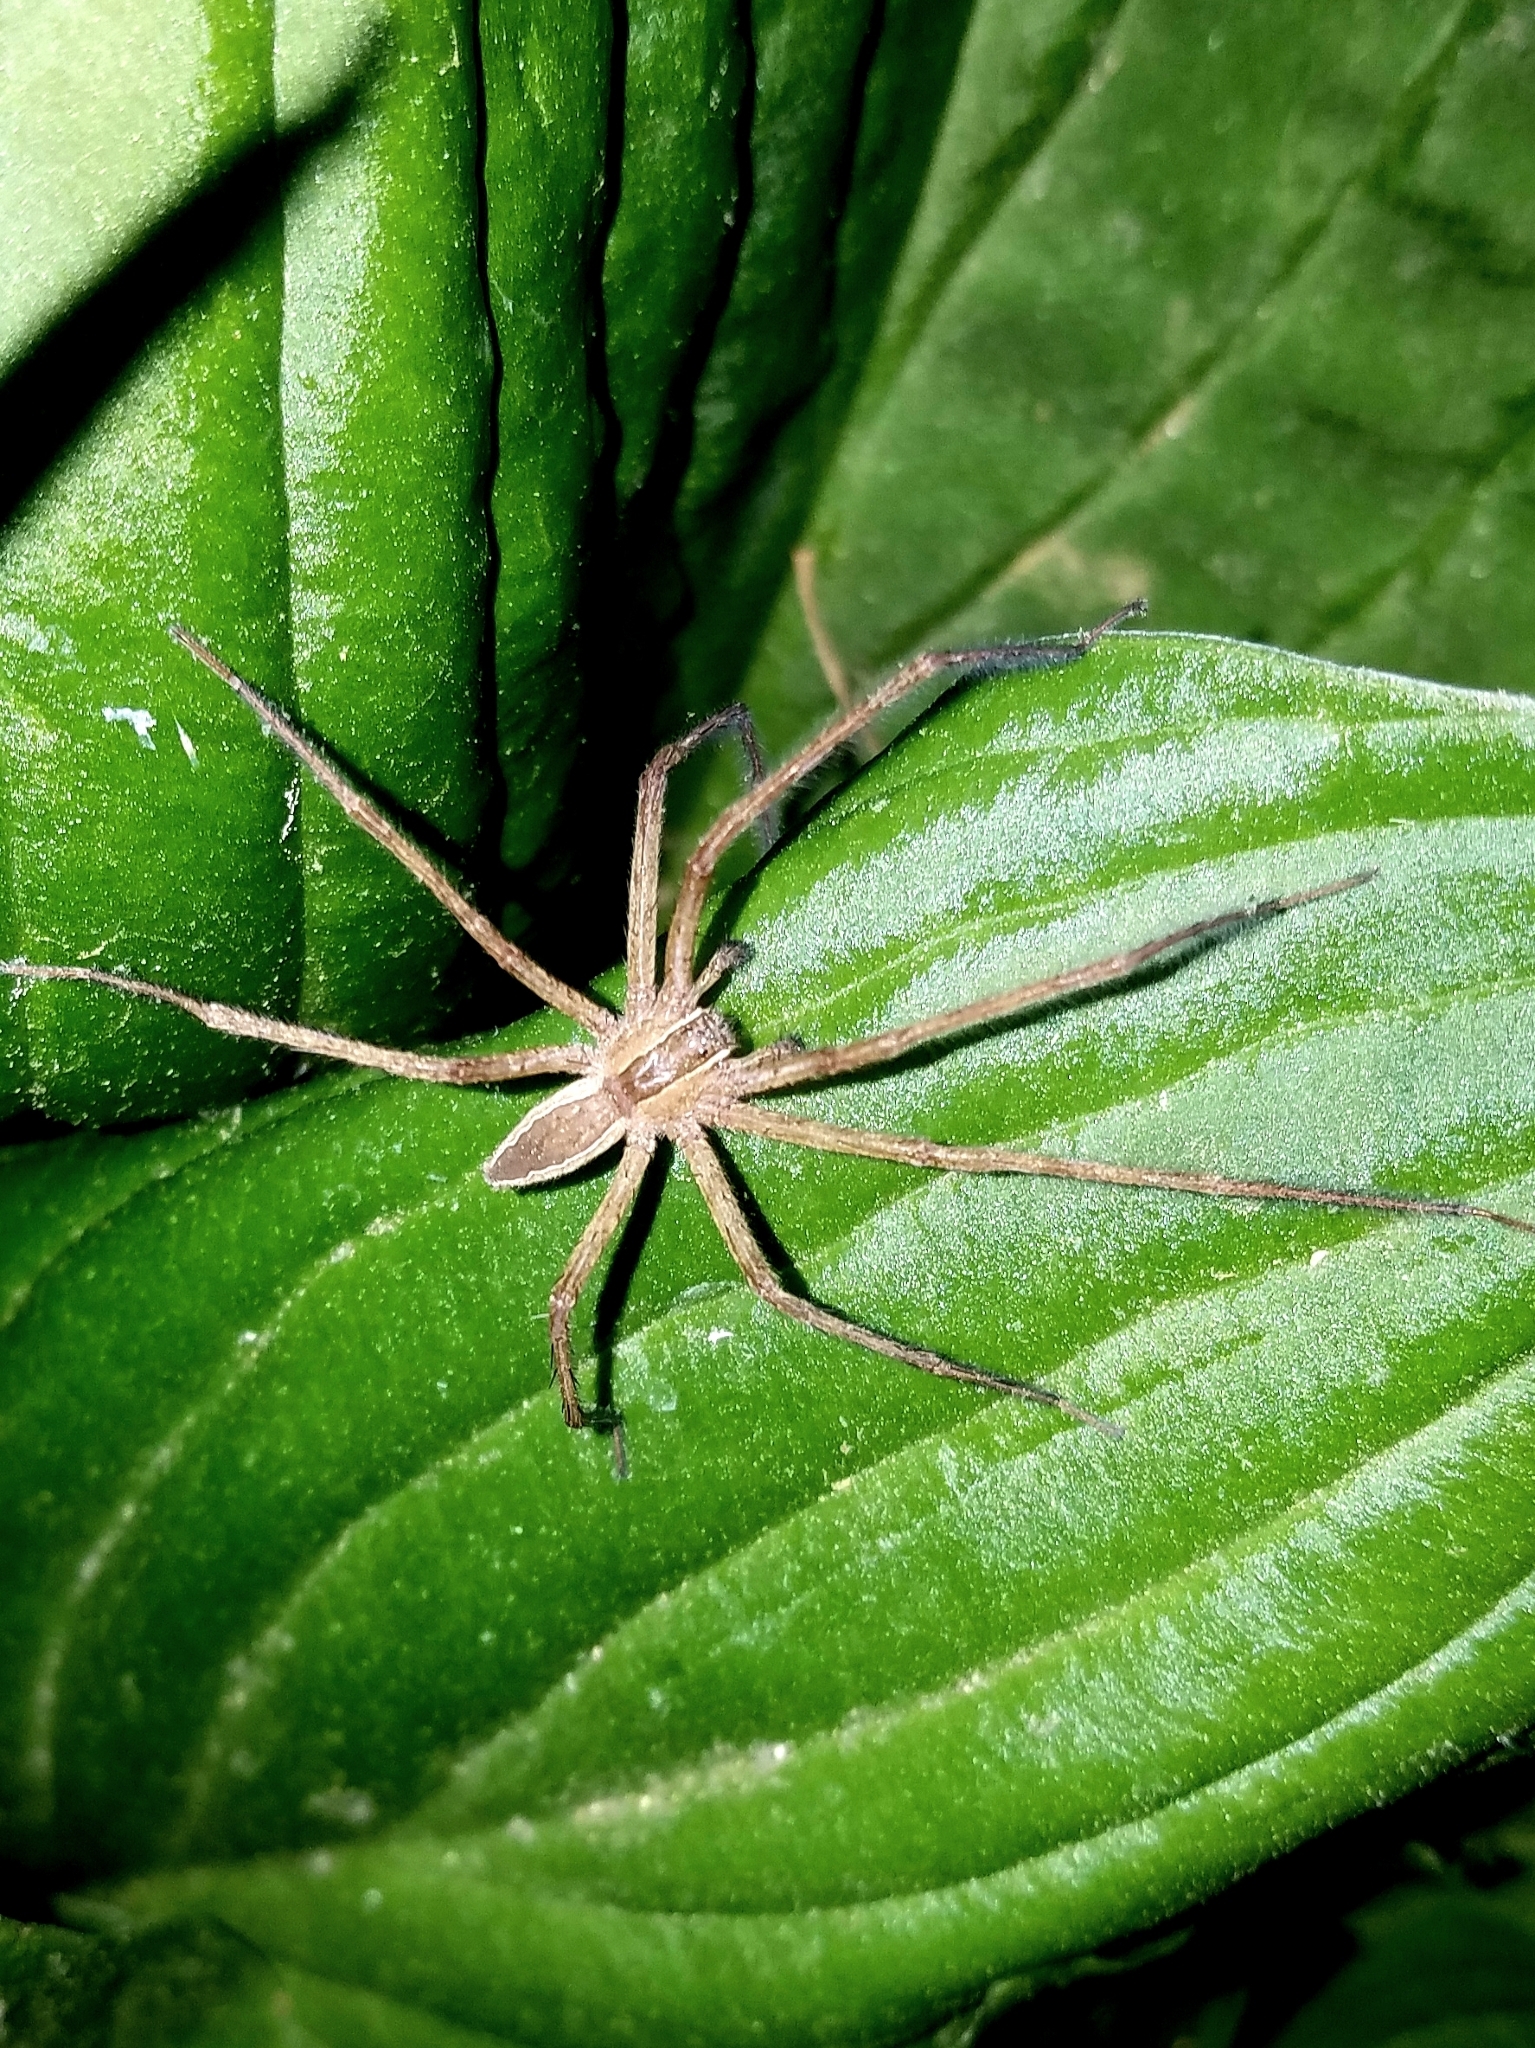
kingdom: Animalia
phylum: Arthropoda
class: Arachnida
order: Araneae
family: Pisauridae
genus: Pisaurina
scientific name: Pisaurina mira
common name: American nursery web spider
